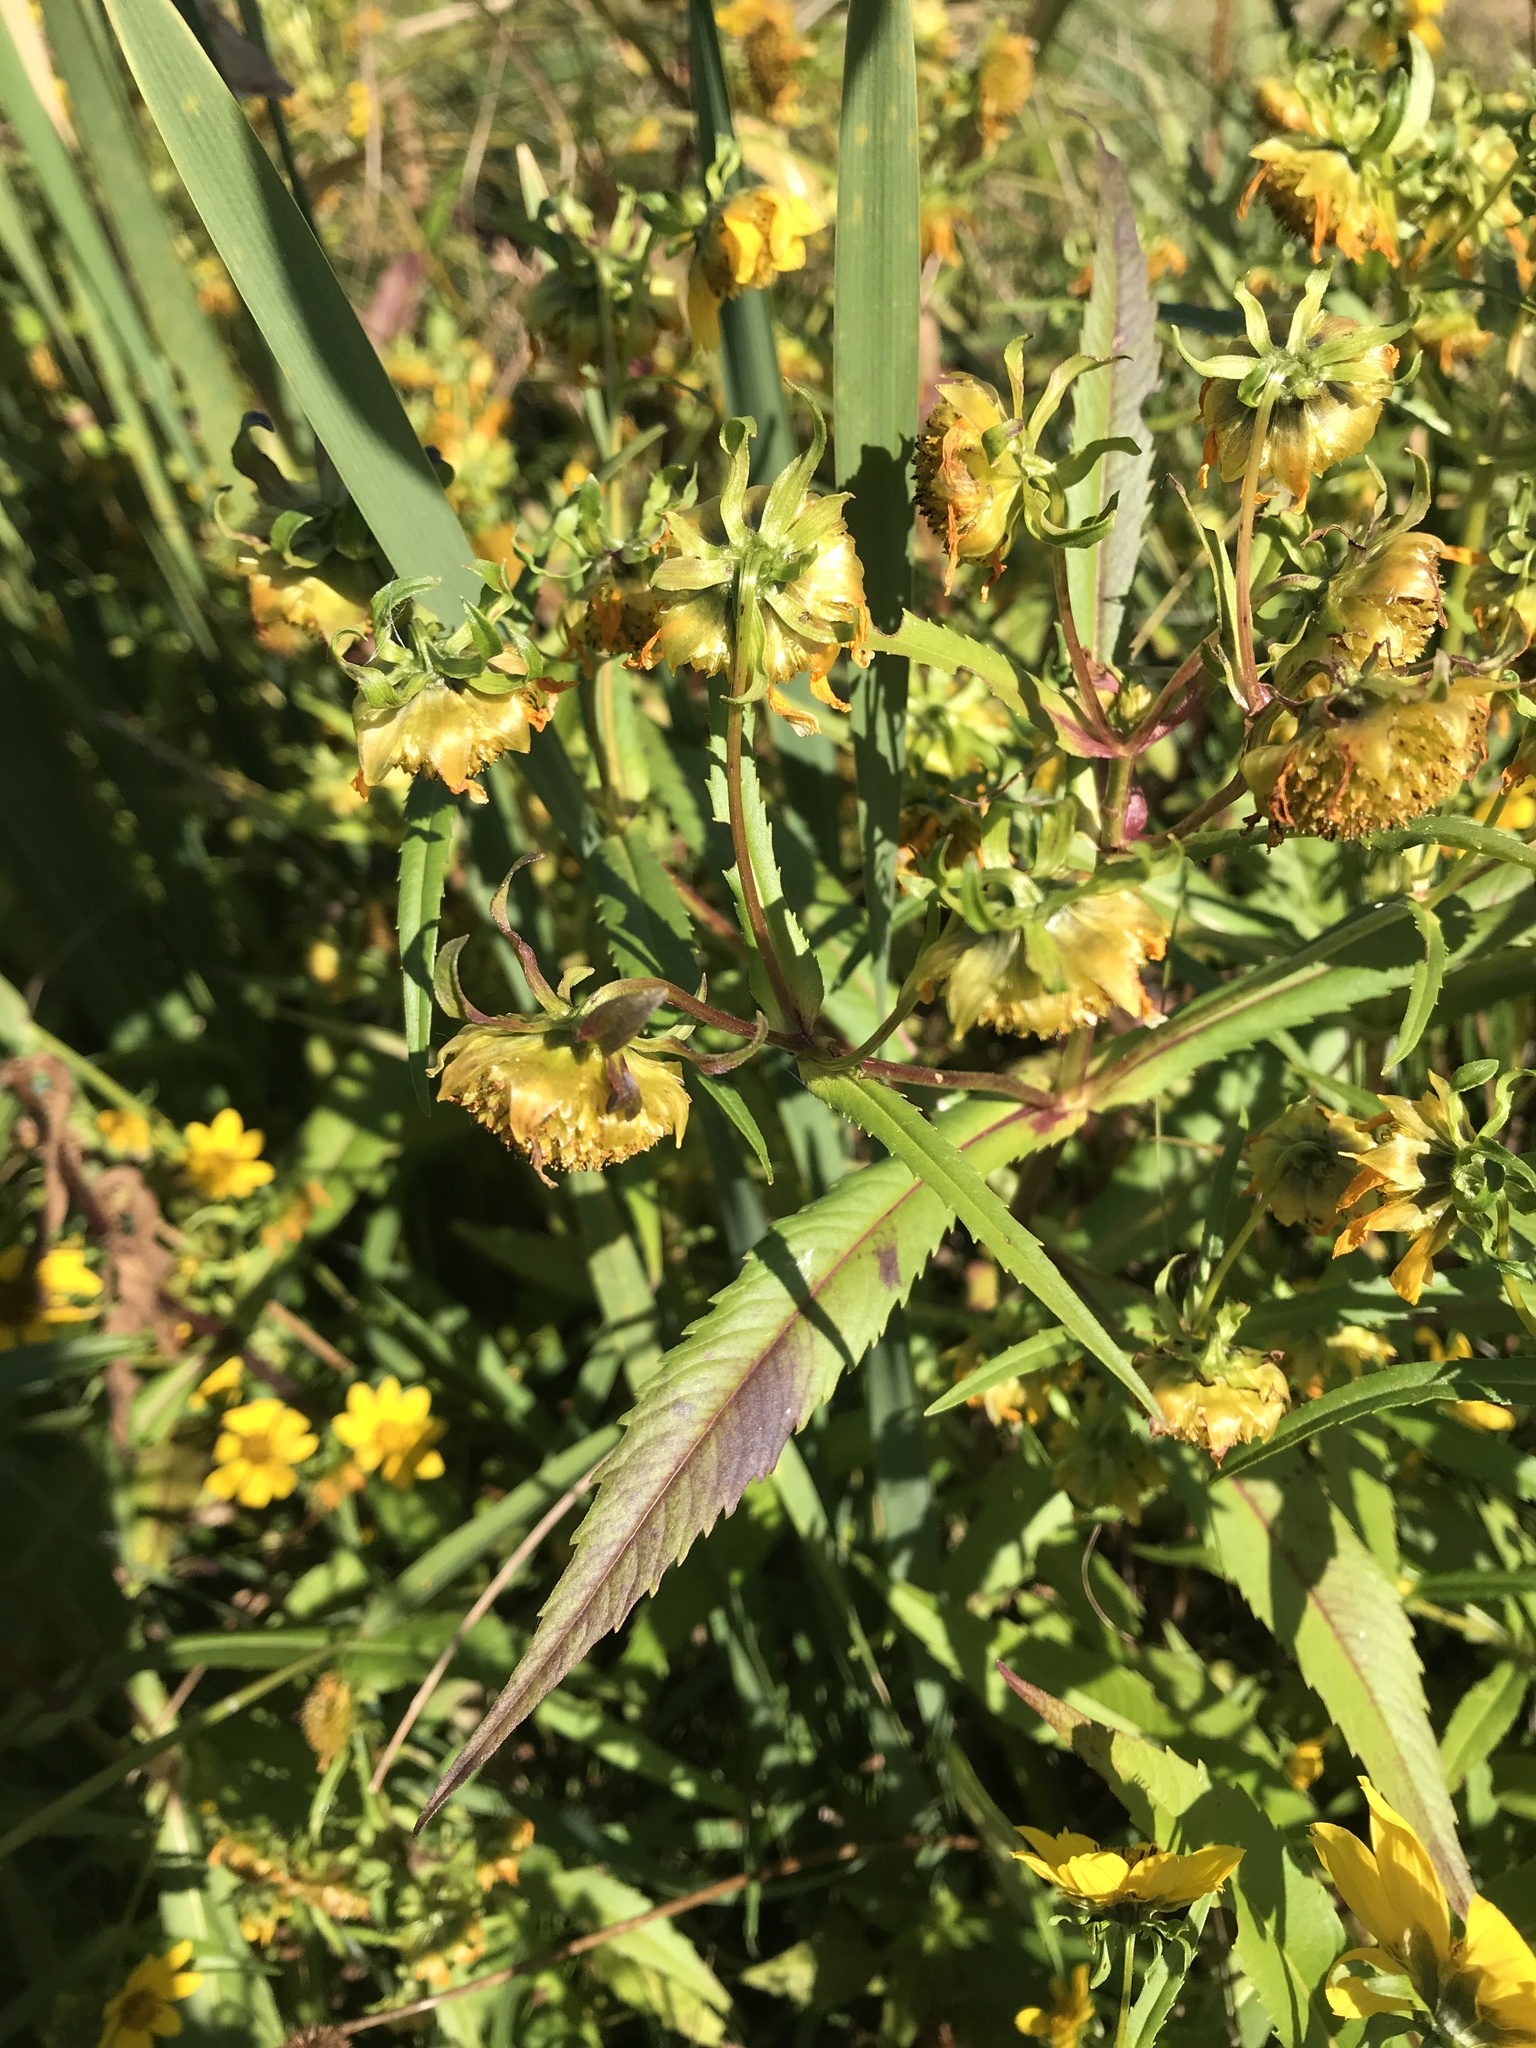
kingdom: Plantae
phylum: Tracheophyta
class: Magnoliopsida
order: Asterales
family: Asteraceae
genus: Bidens
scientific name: Bidens cernua
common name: Nodding bur-marigold
